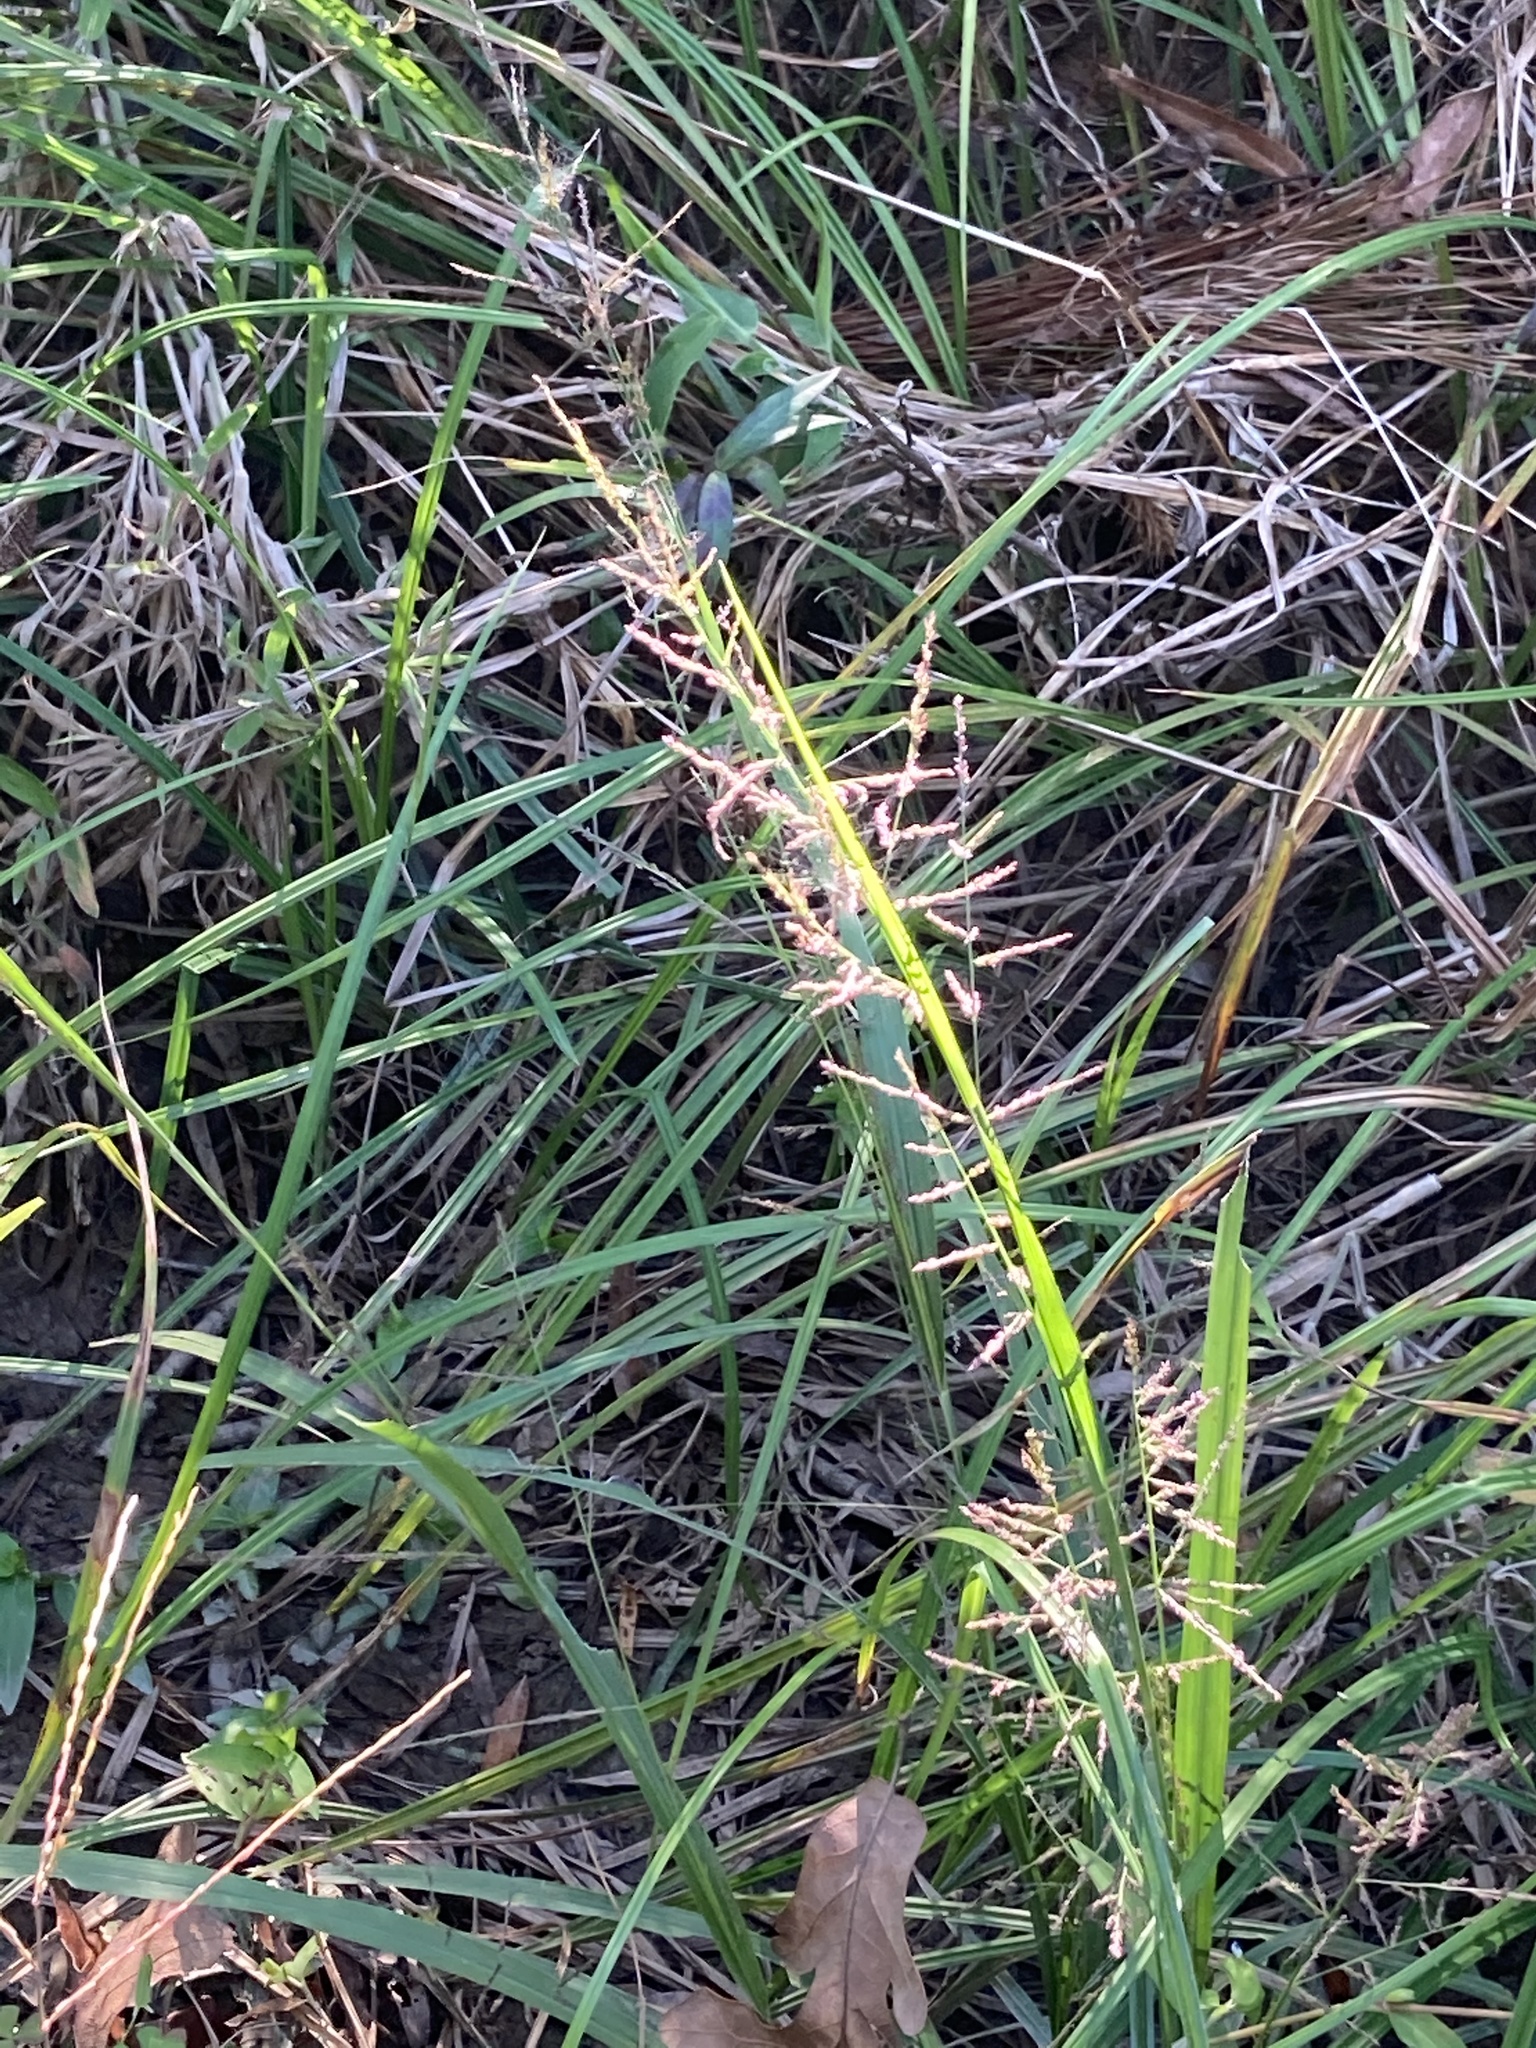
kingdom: Plantae
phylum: Tracheophyta
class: Liliopsida
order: Poales
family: Poaceae
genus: Coleataenia
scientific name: Coleataenia rigidula
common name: Redtop panicgrass
